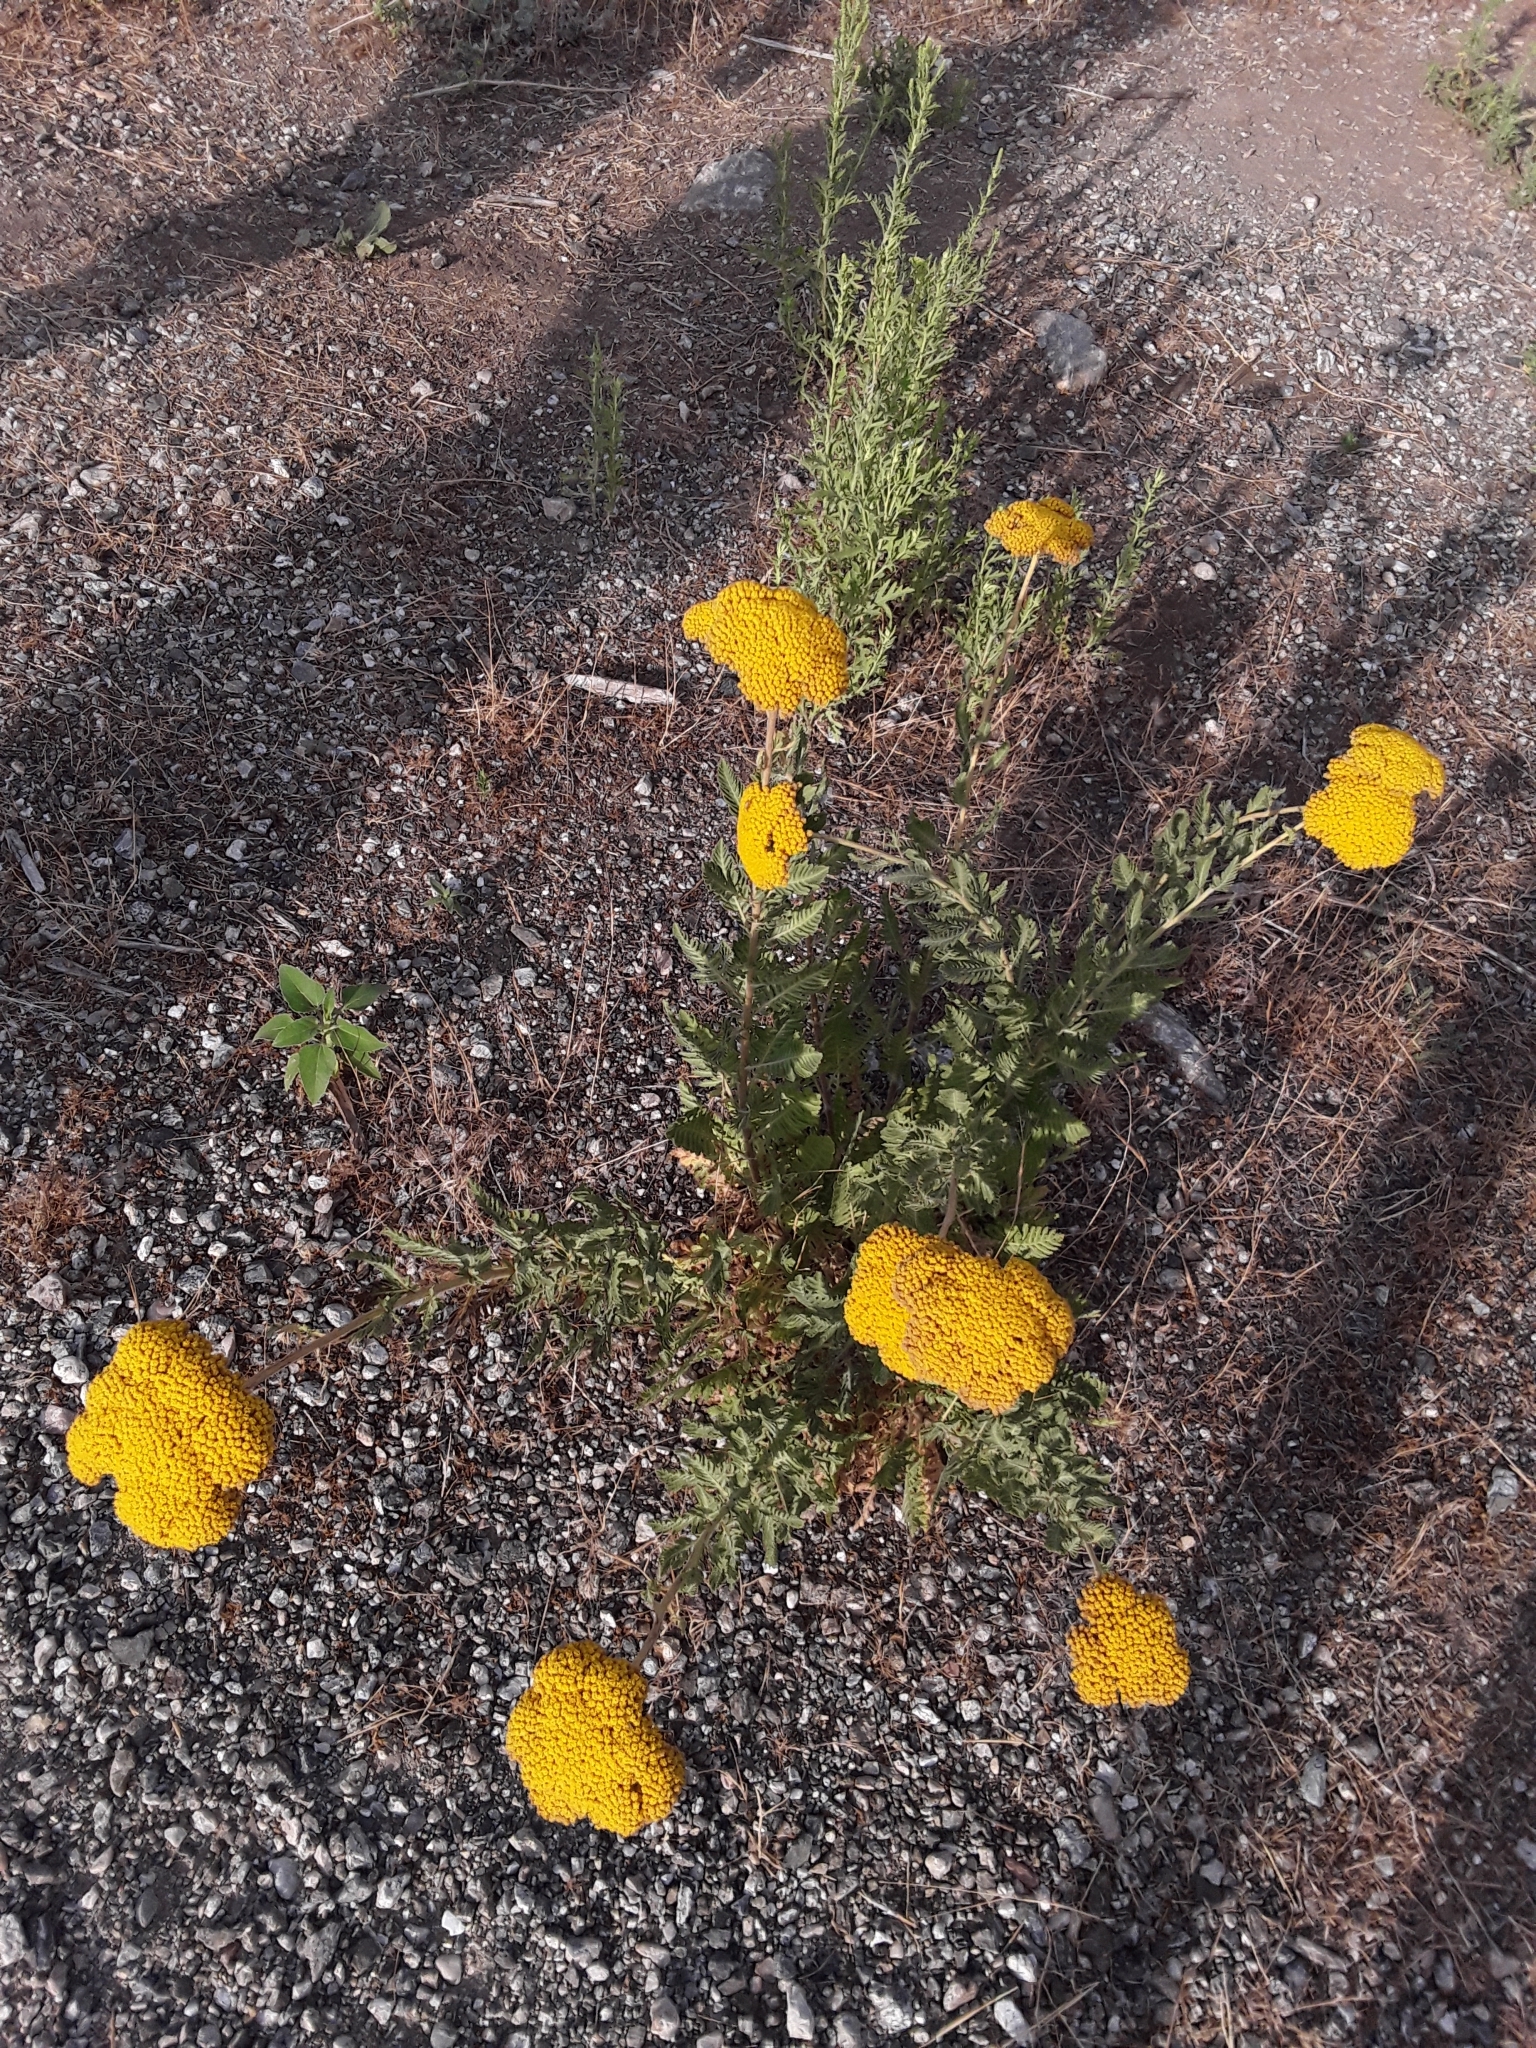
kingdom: Plantae
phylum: Tracheophyta
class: Magnoliopsida
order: Asterales
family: Asteraceae
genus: Achillea
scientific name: Achillea filipendulina
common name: Fernleaf yarrow
